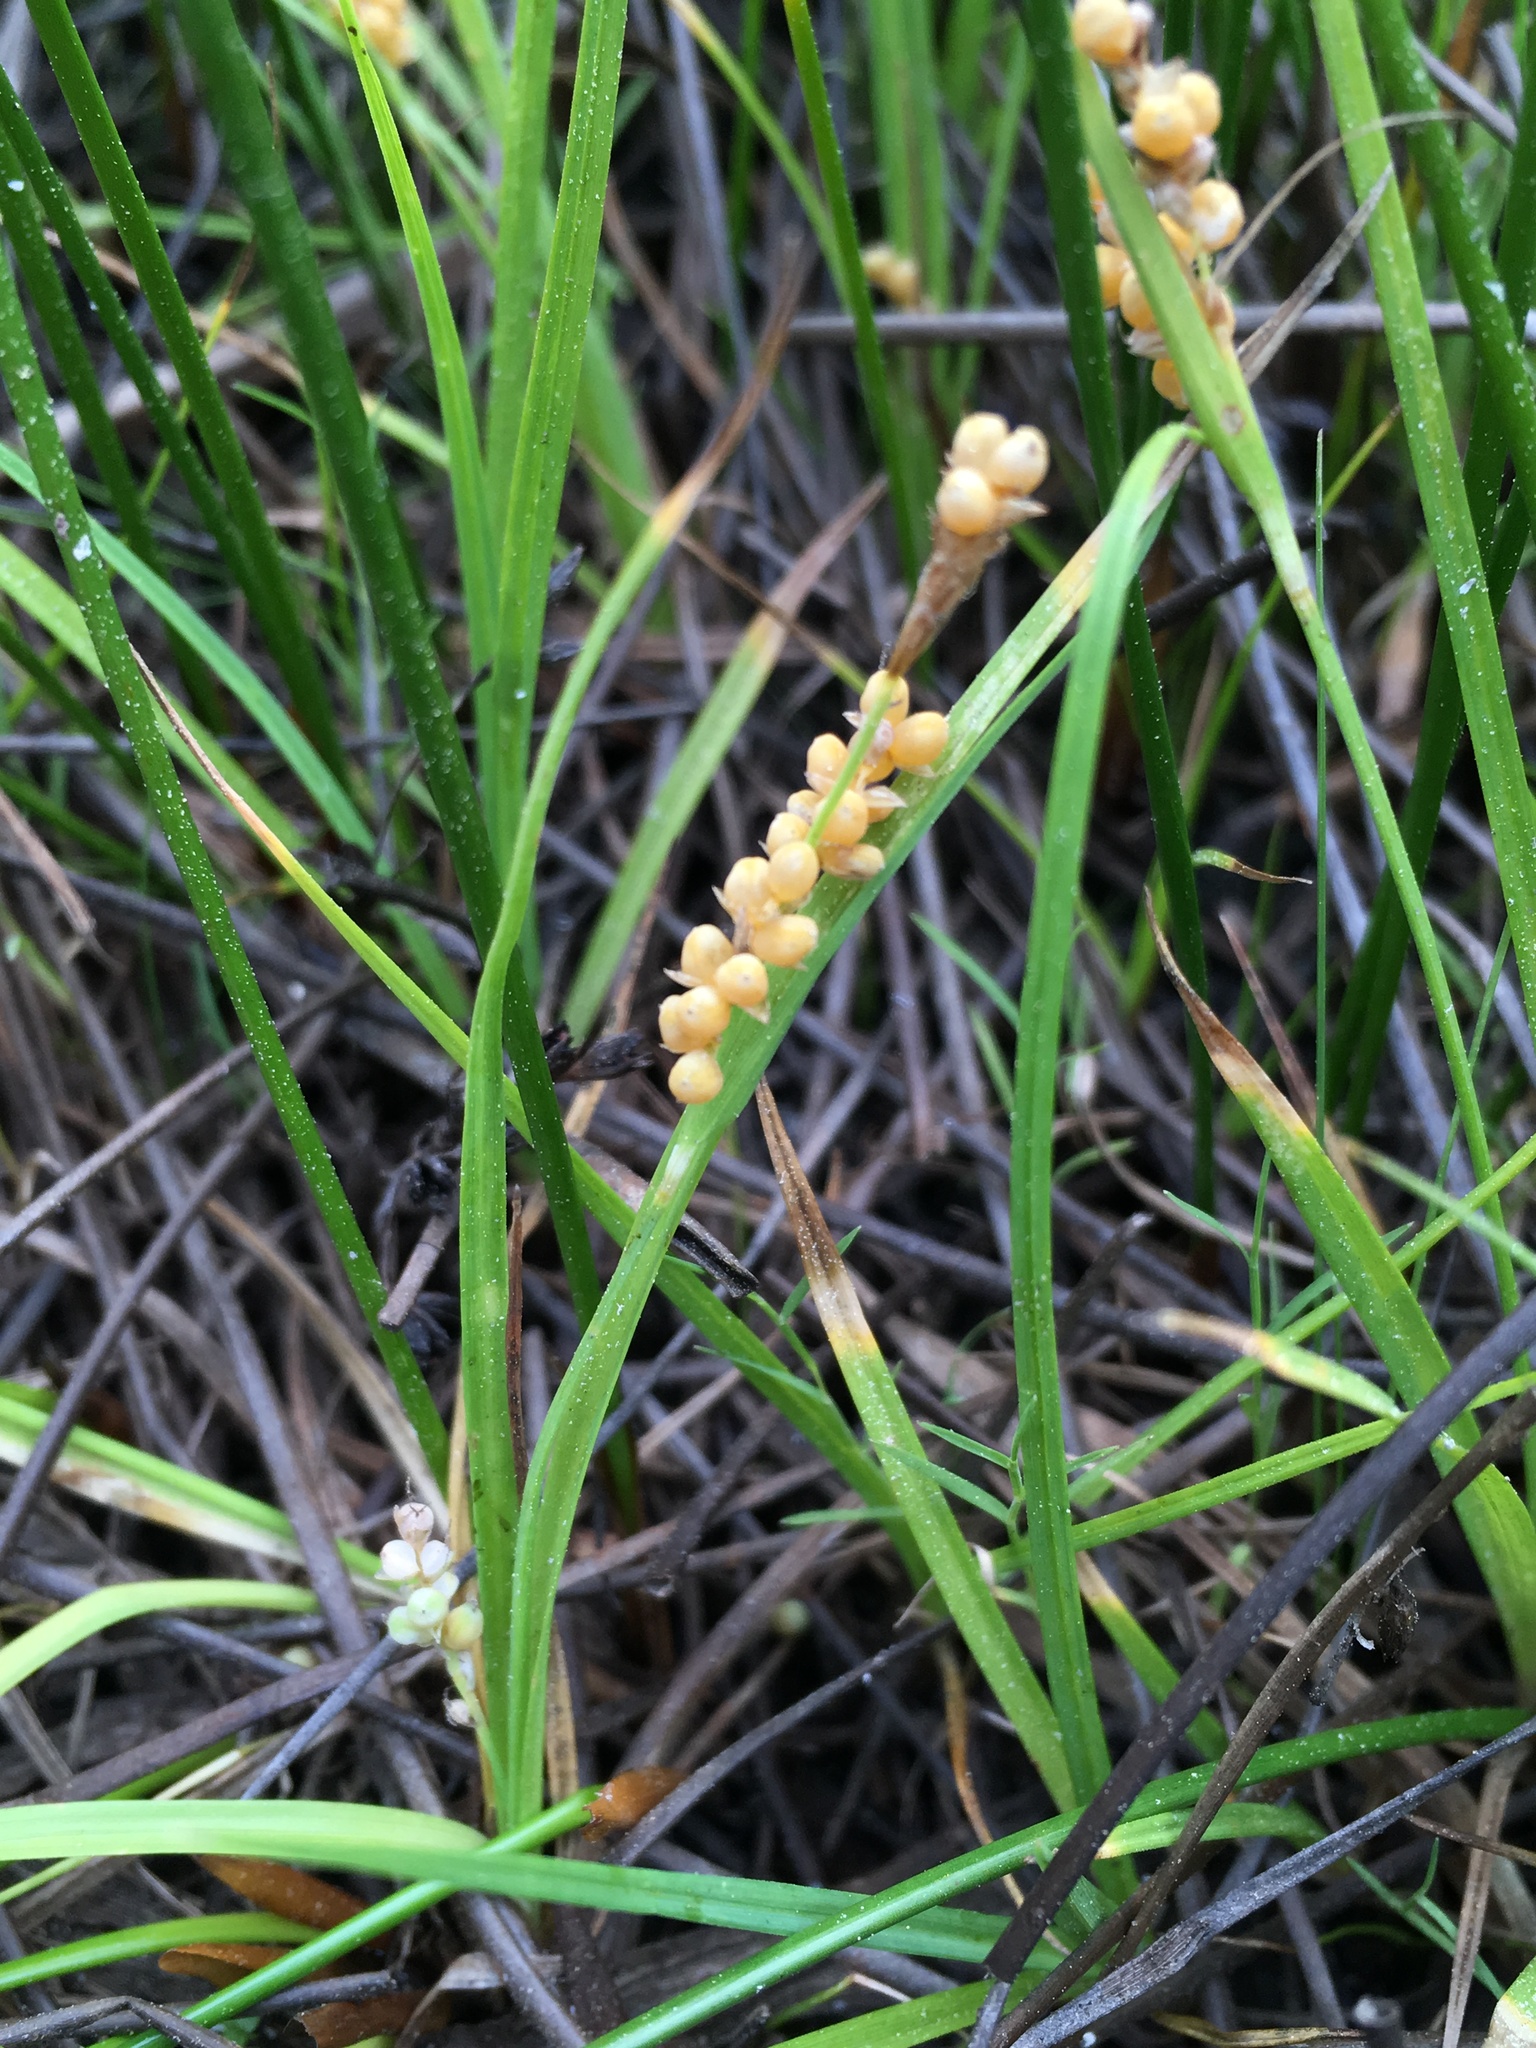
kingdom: Plantae
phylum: Tracheophyta
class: Liliopsida
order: Poales
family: Cyperaceae
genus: Carex
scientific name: Carex aurea
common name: Golden sedge
